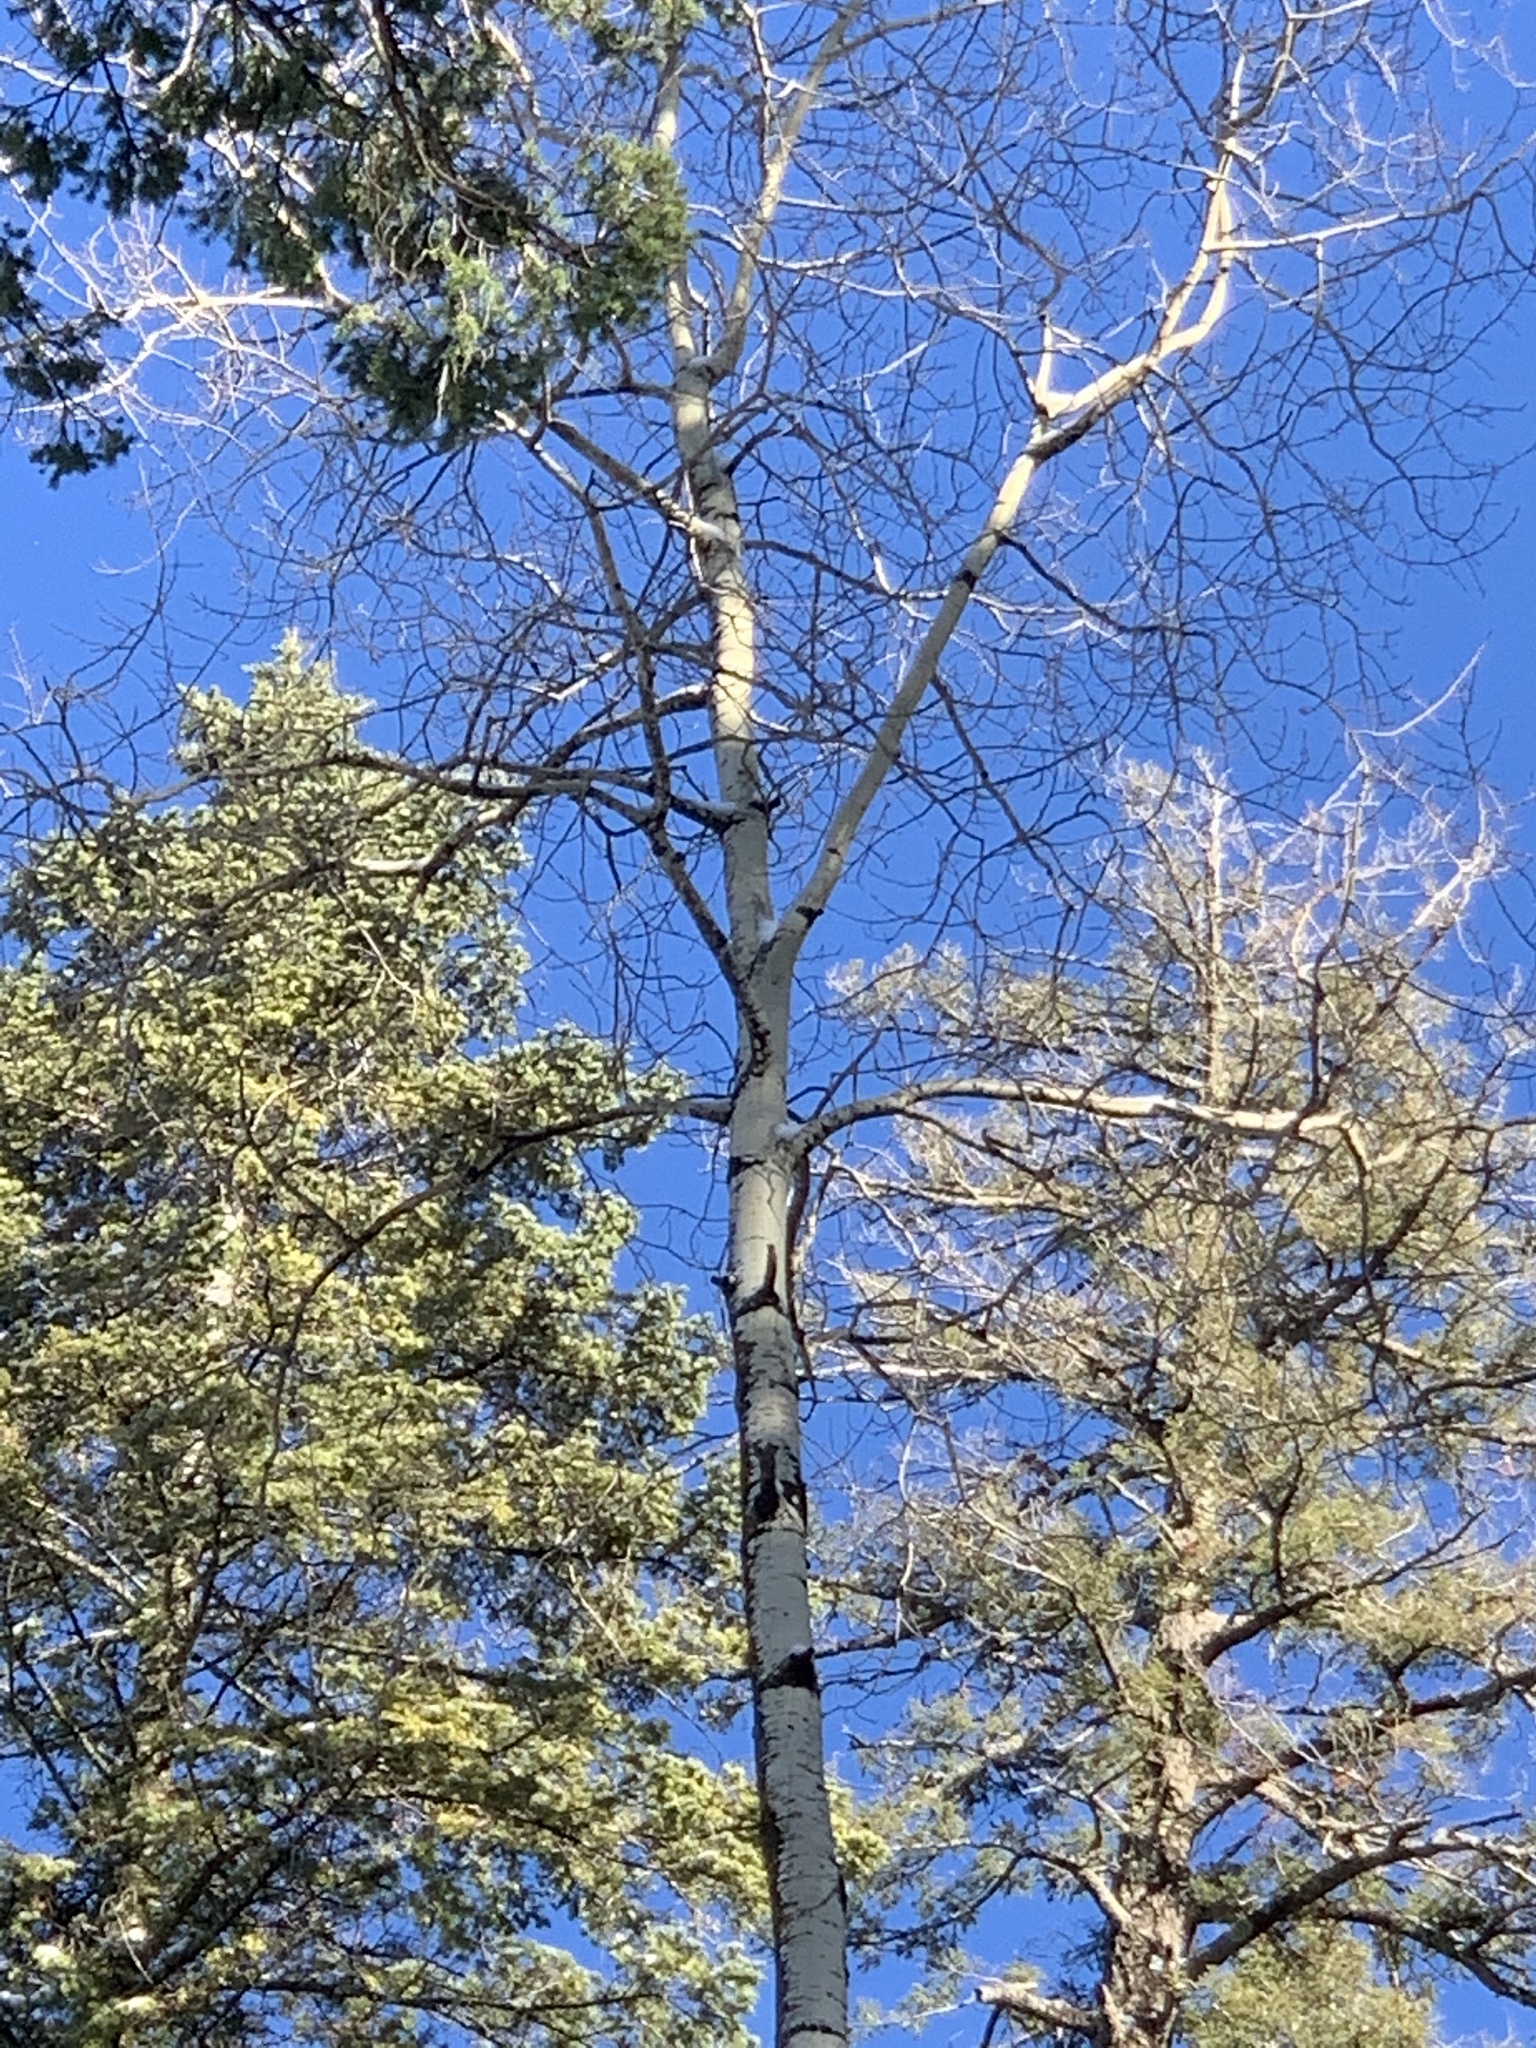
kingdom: Plantae
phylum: Tracheophyta
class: Magnoliopsida
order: Malpighiales
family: Salicaceae
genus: Populus
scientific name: Populus tremuloides
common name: Quaking aspen
